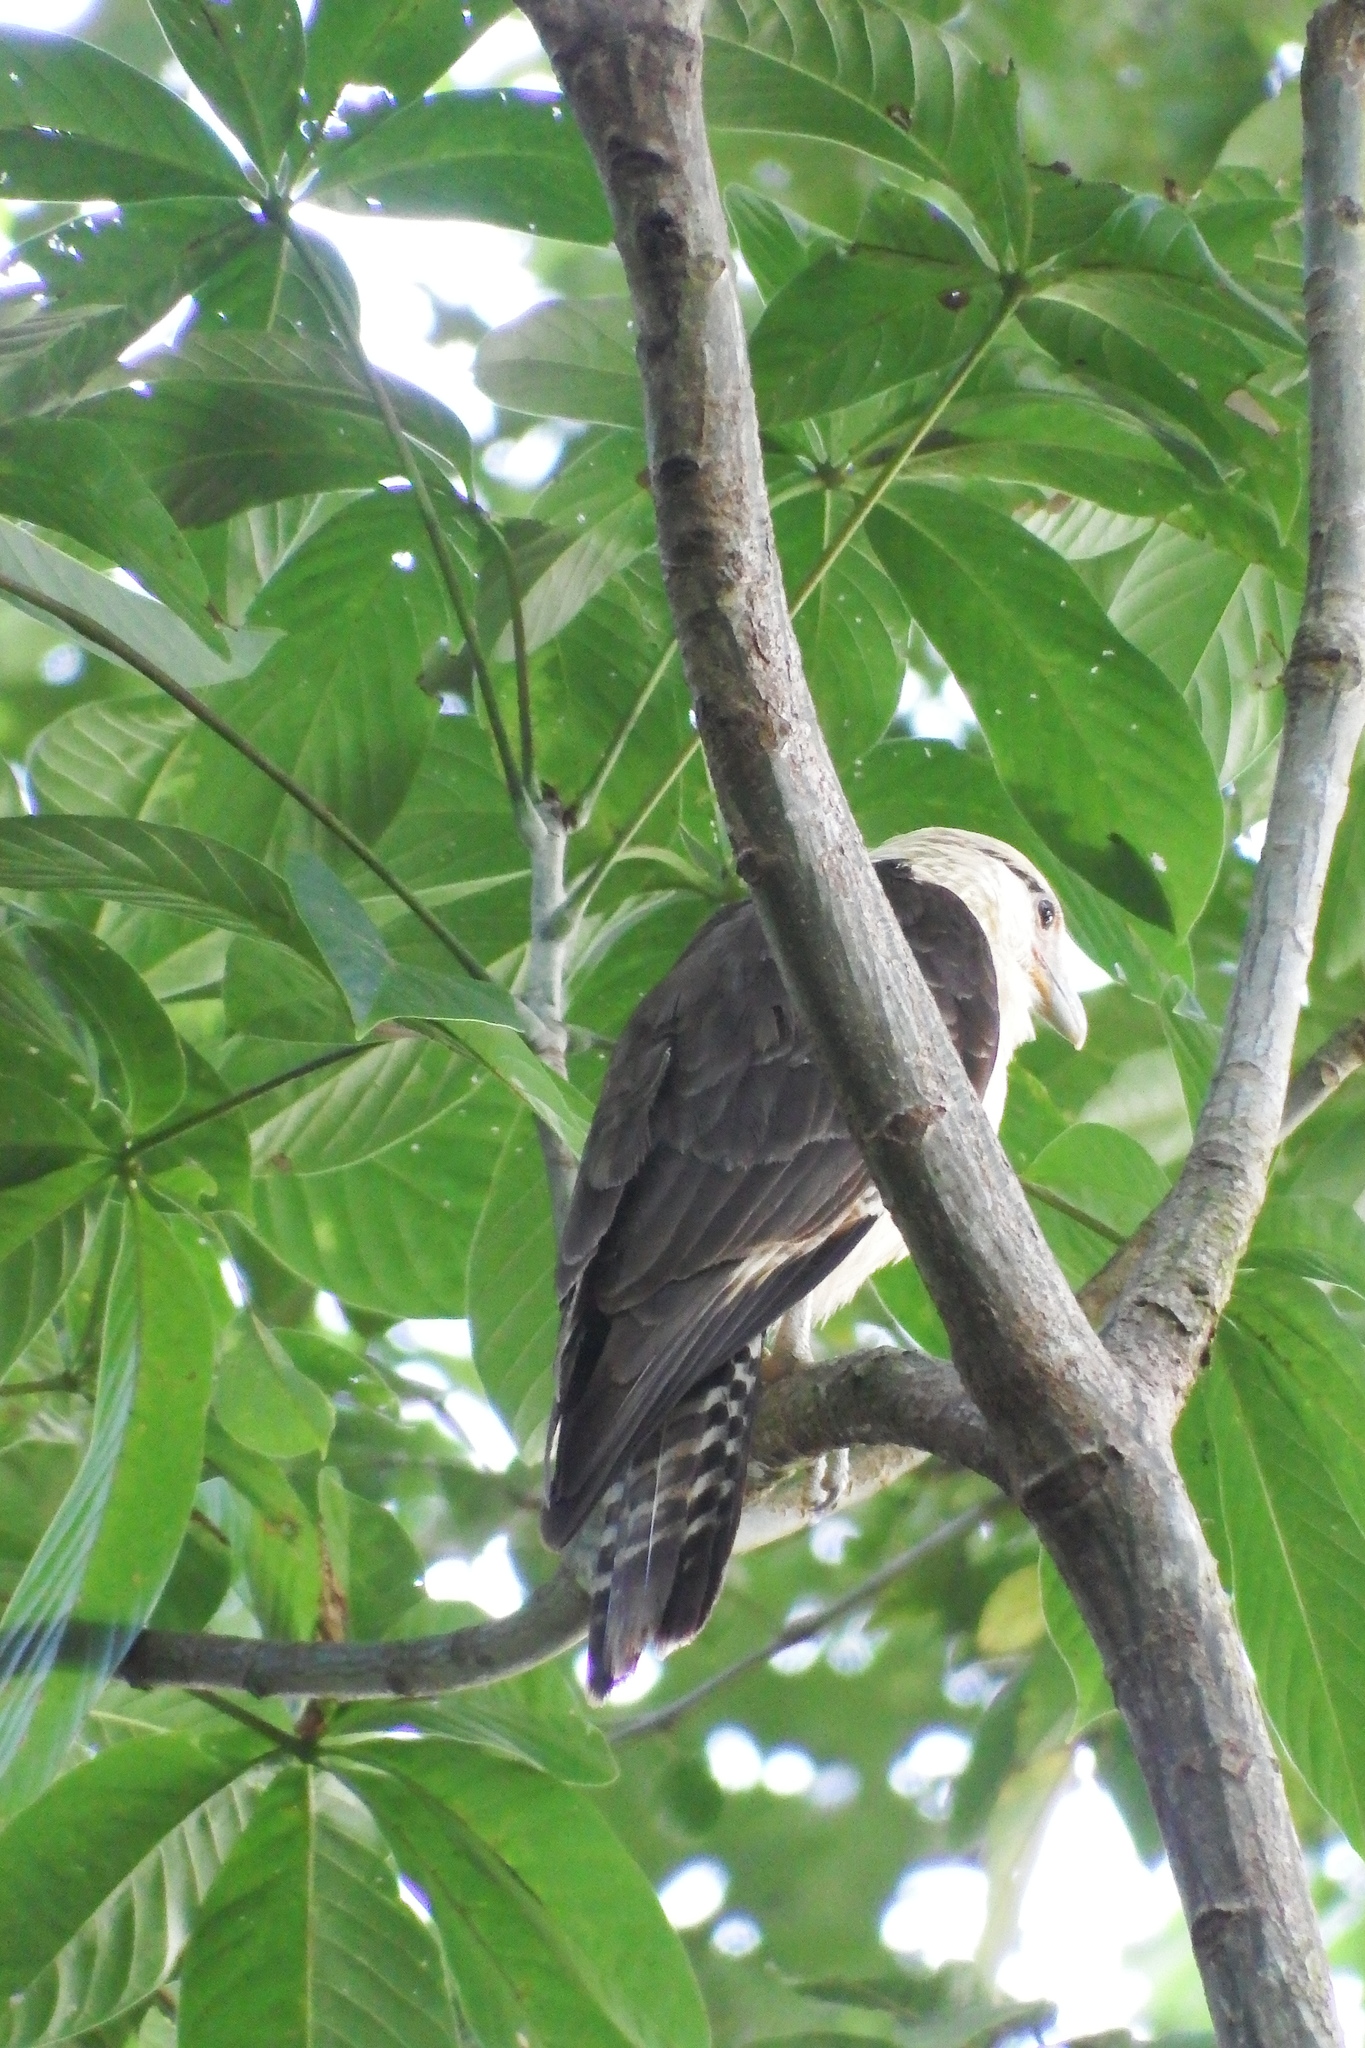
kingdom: Animalia
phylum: Chordata
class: Aves
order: Falconiformes
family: Falconidae
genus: Daptrius
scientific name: Daptrius
